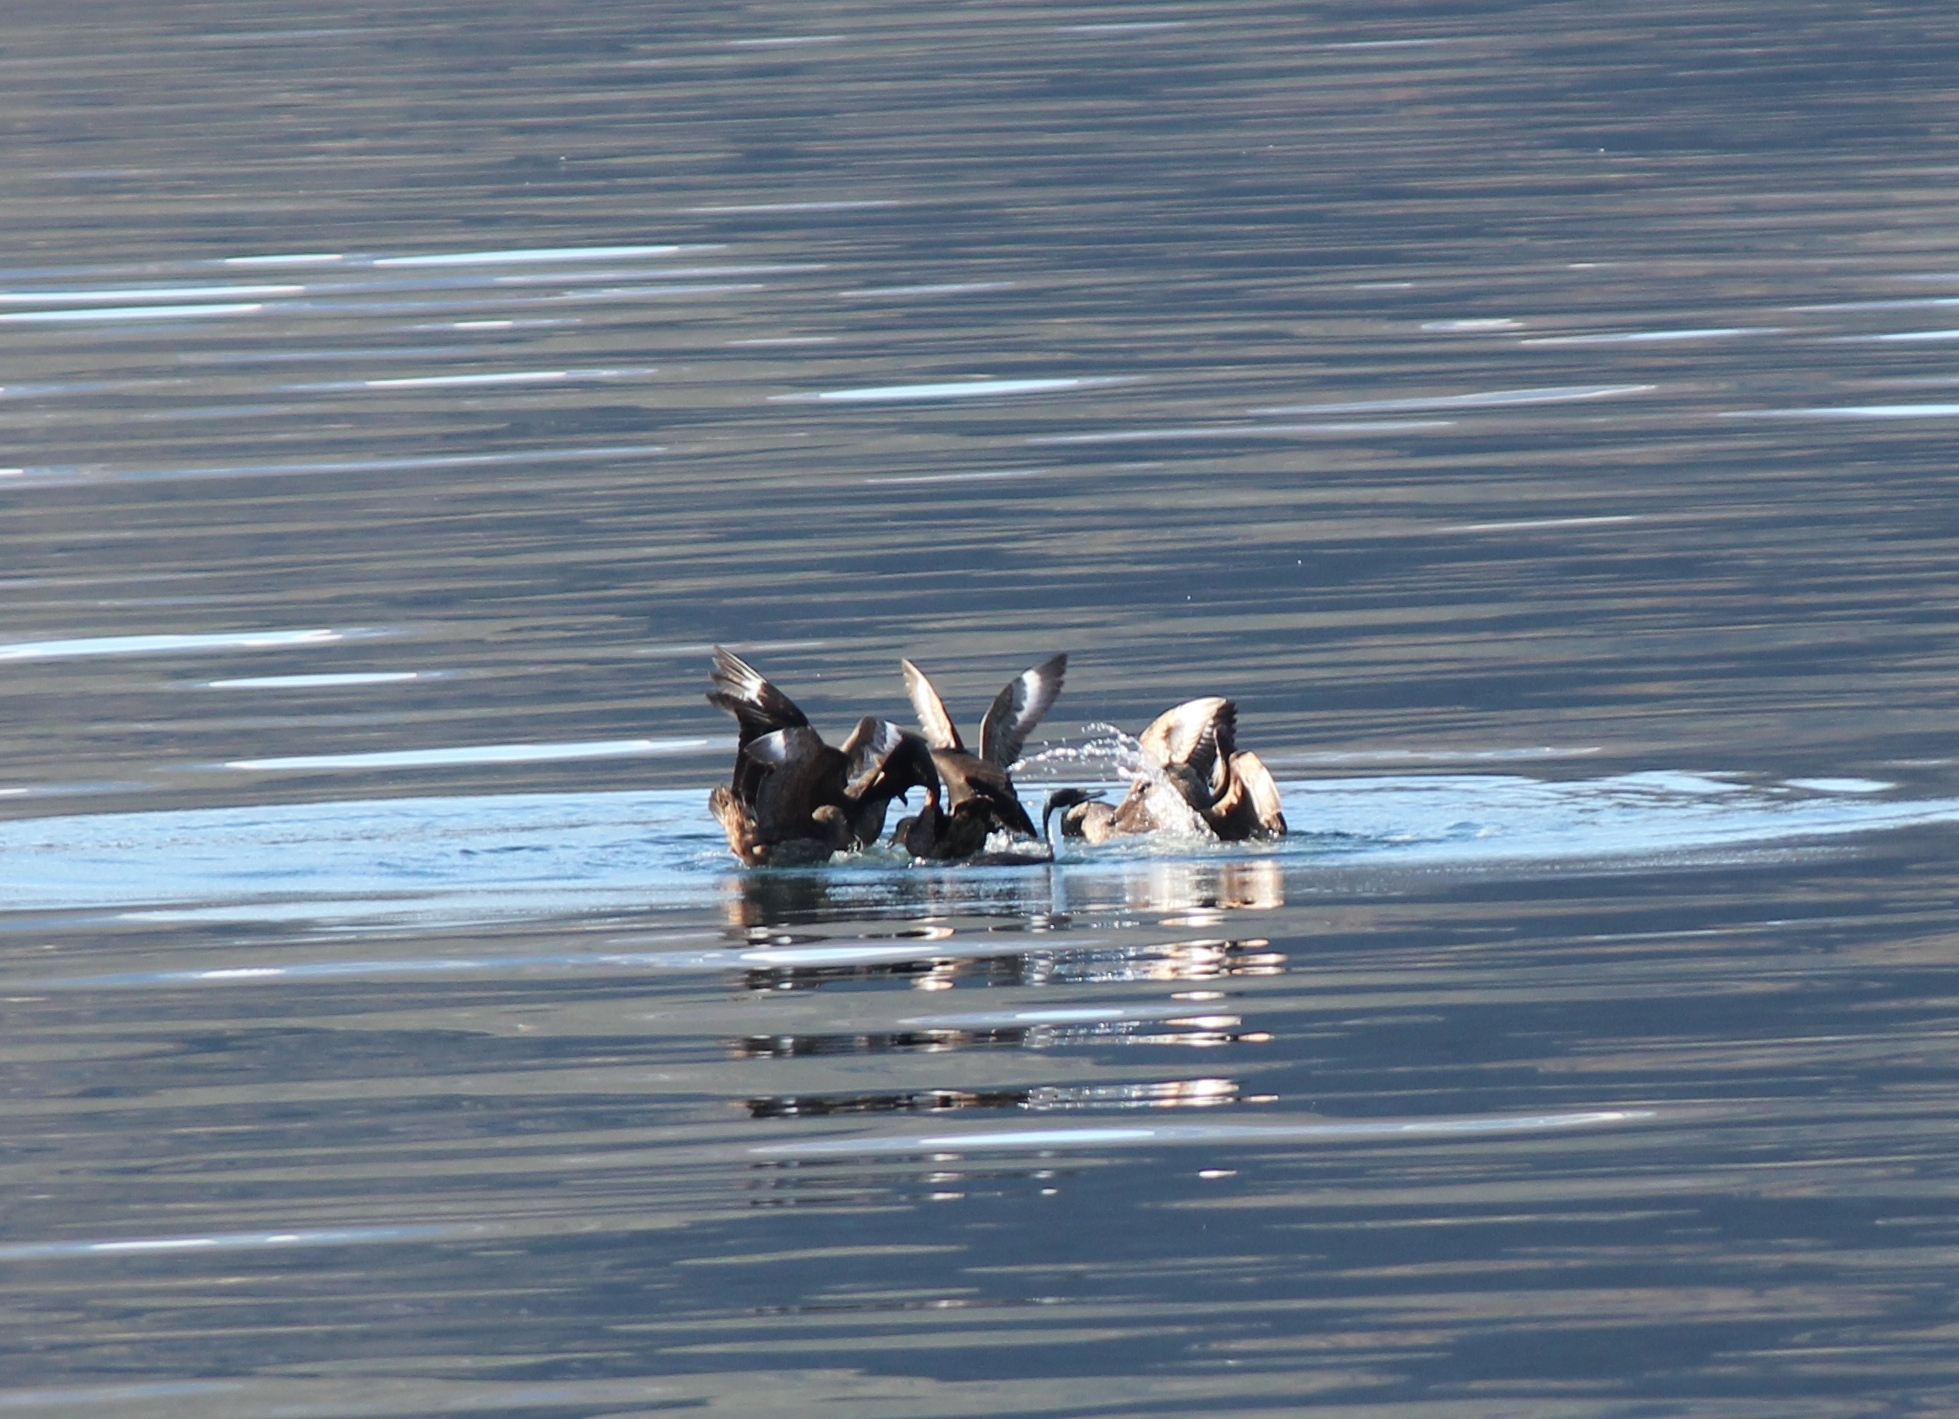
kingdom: Animalia
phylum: Chordata
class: Aves
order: Charadriiformes
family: Stercorariidae
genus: Stercorarius
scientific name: Stercorarius chilensis
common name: Chilean skua
